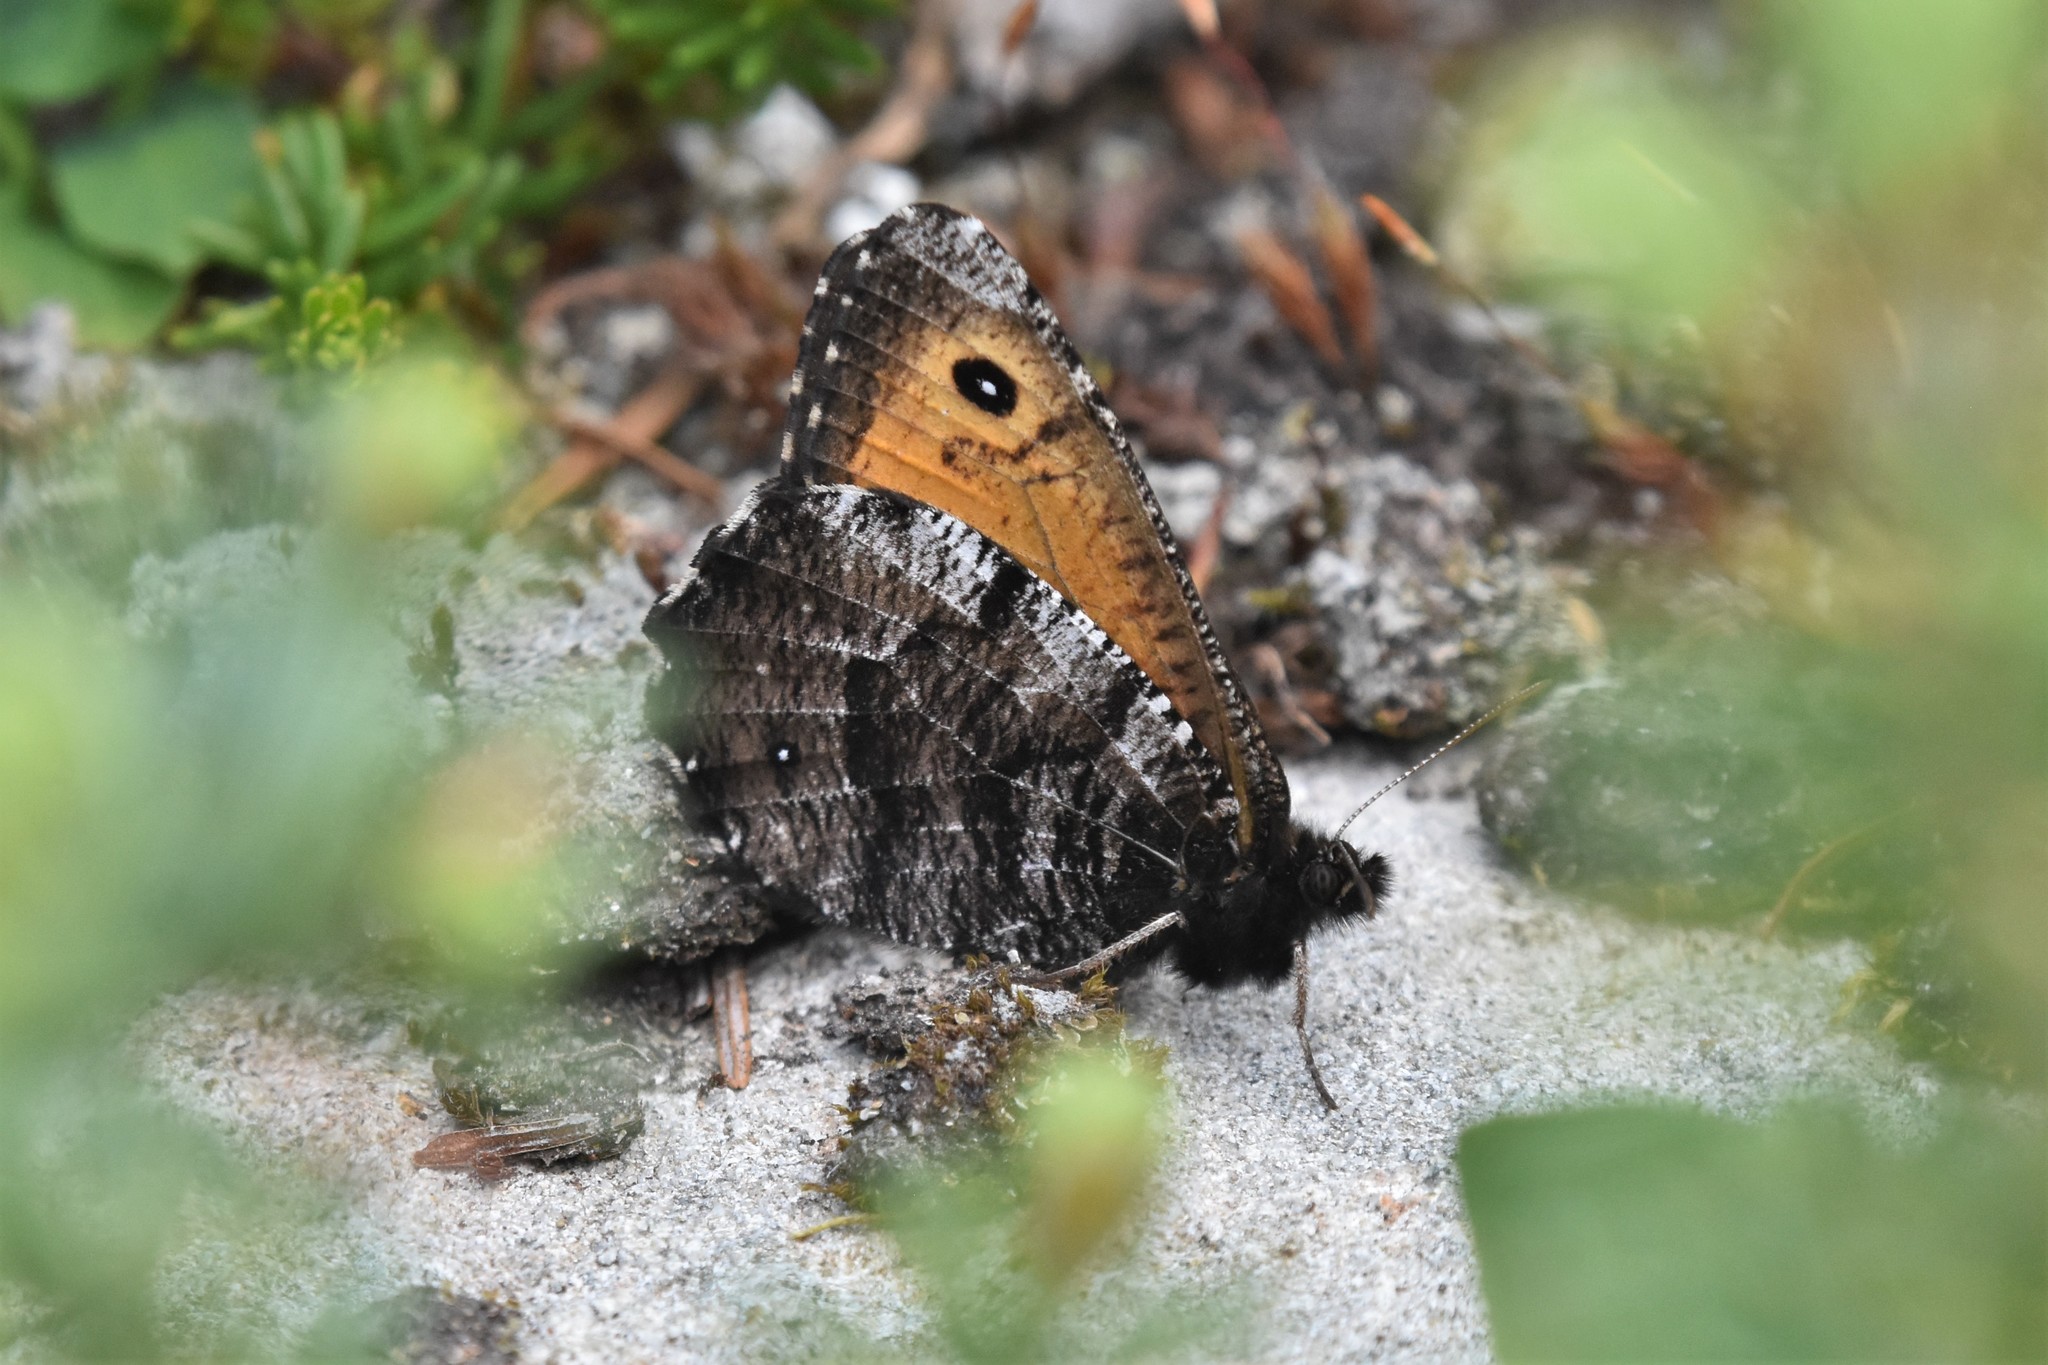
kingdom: Animalia
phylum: Arthropoda
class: Insecta
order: Lepidoptera
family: Nymphalidae
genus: Oeneis
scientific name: Oeneis nevadensis
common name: Great arctic
